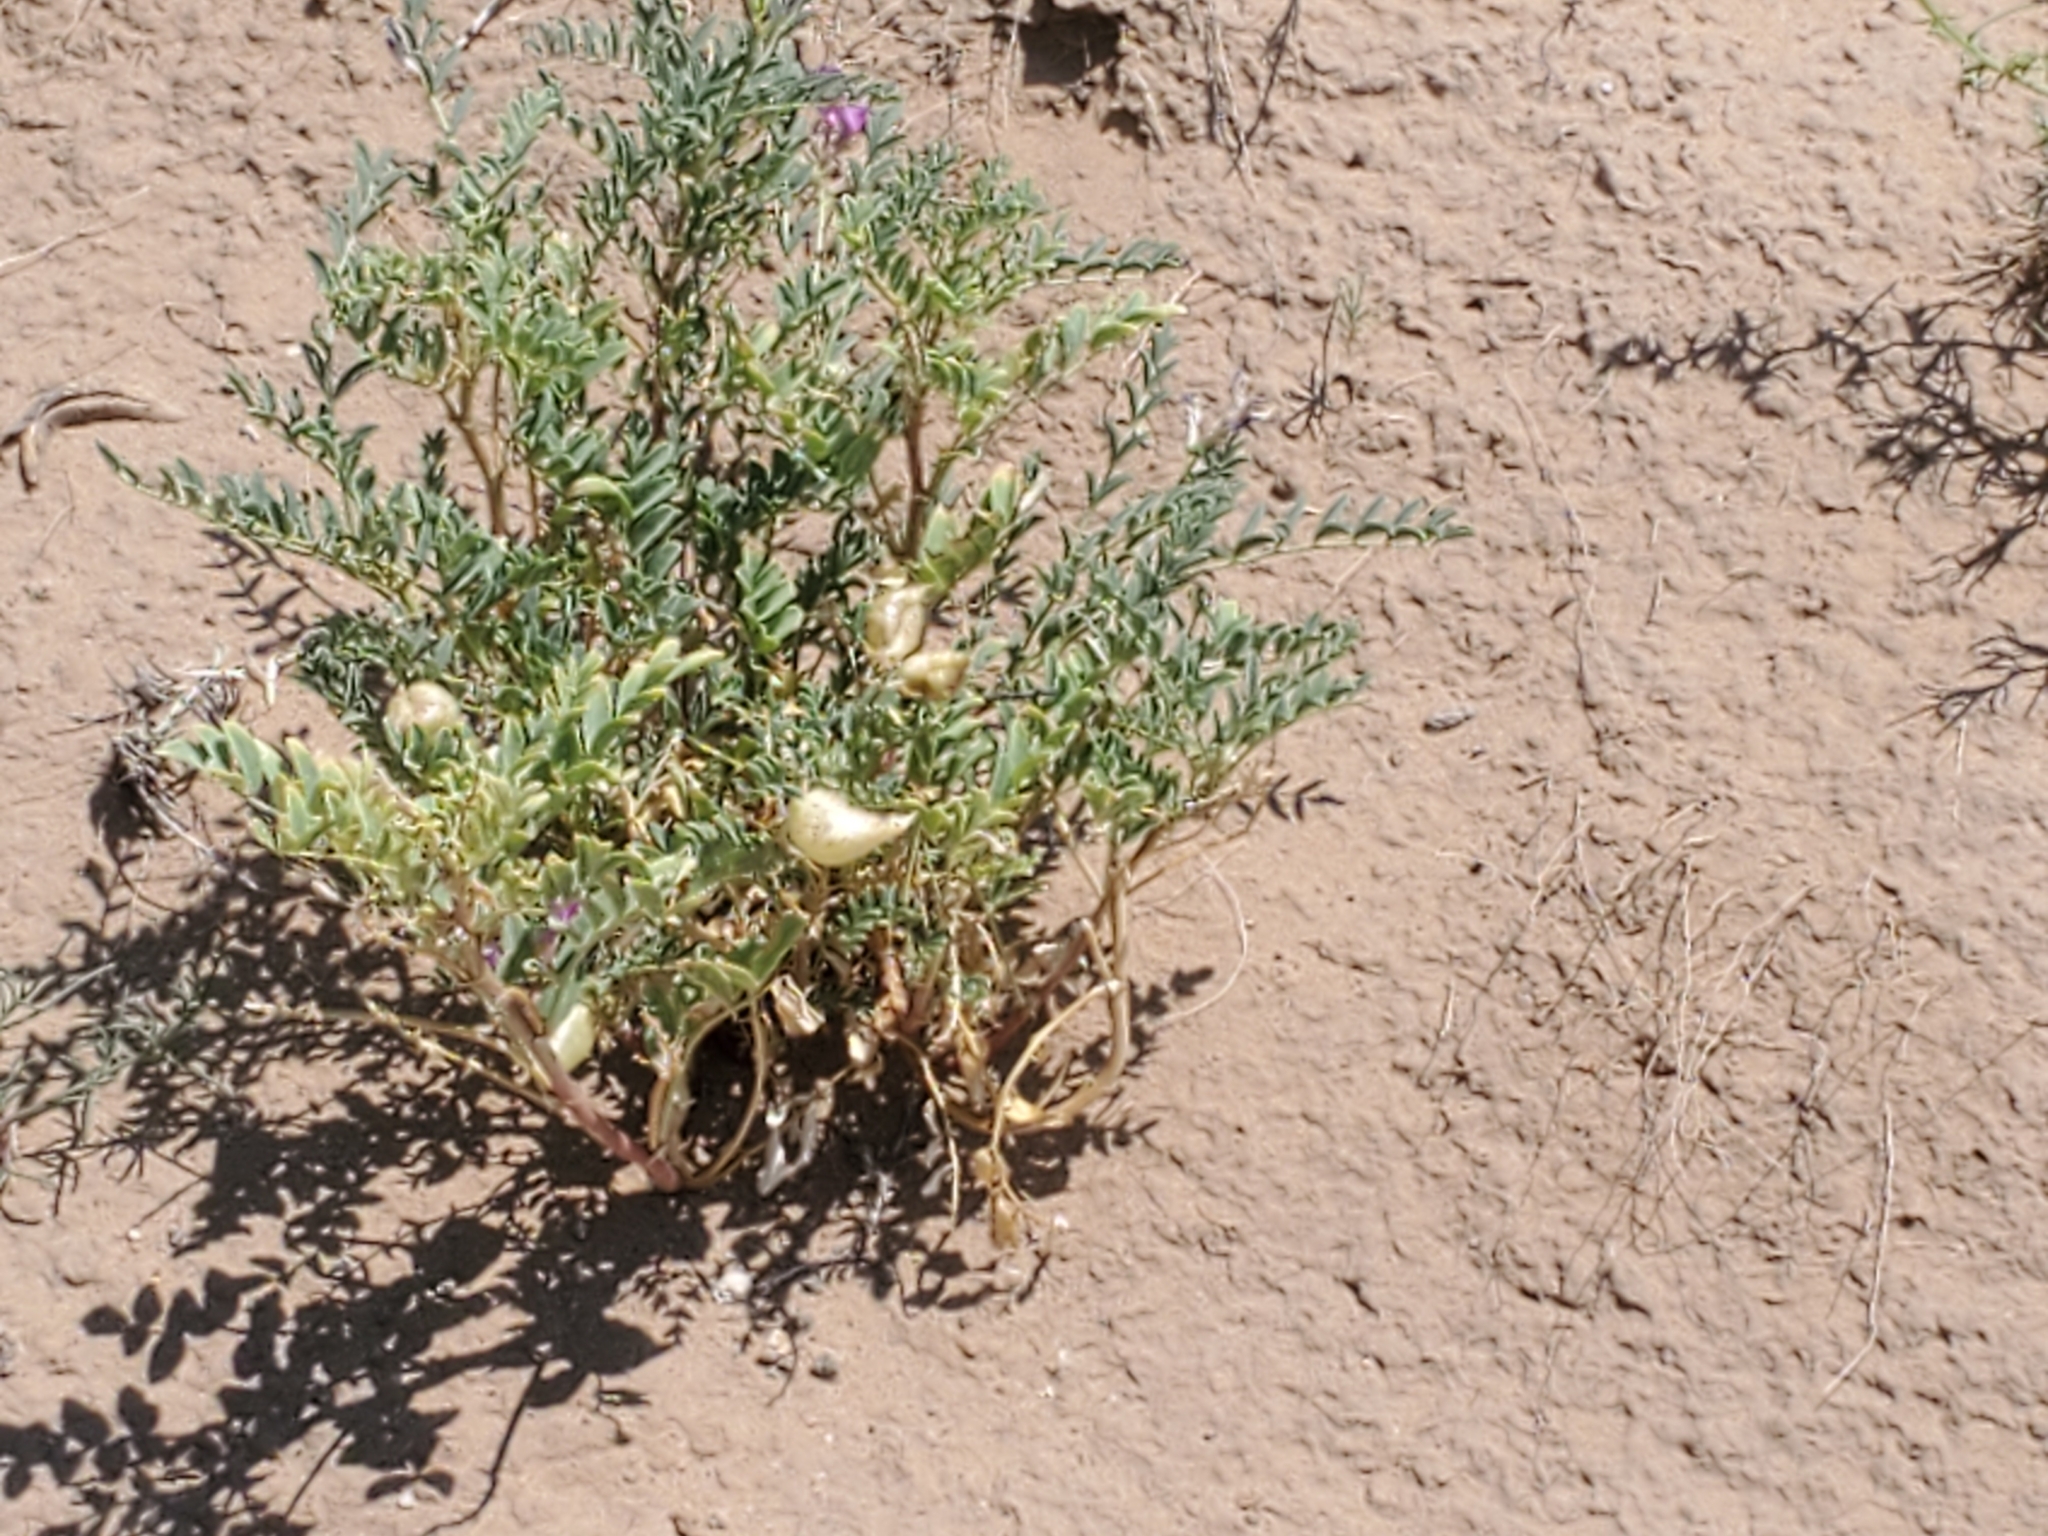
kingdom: Plantae
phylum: Tracheophyta
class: Magnoliopsida
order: Fabales
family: Fabaceae
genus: Astragalus
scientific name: Astragalus lentiginosus
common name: Freckled milkvetch
